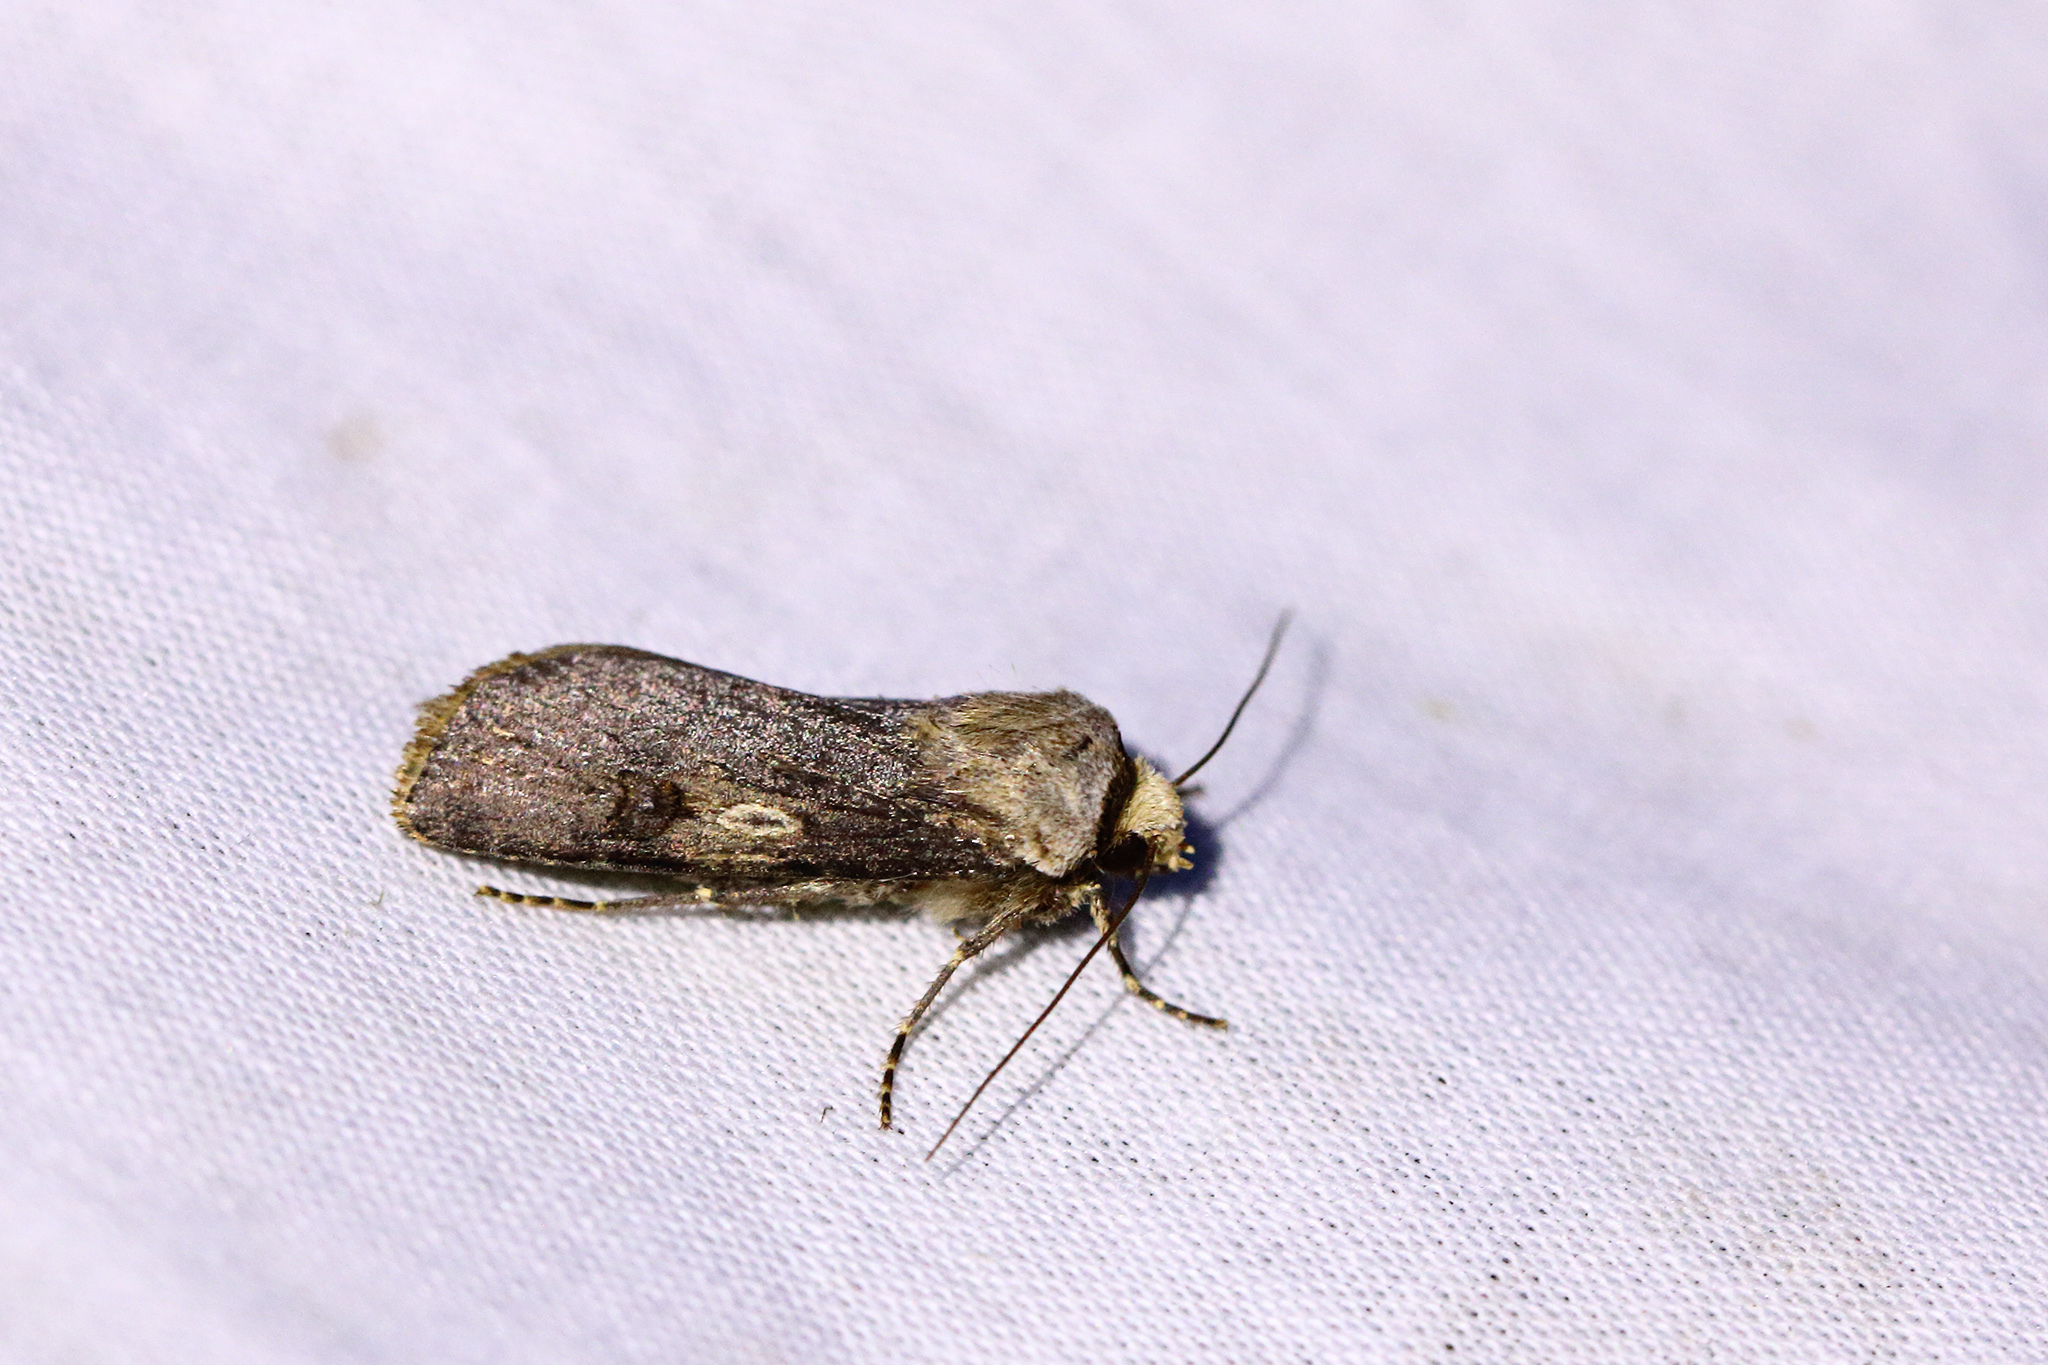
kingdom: Animalia
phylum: Arthropoda
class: Insecta
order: Lepidoptera
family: Noctuidae
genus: Agrotis
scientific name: Agrotis puta
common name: Shuttle-shaped dart
